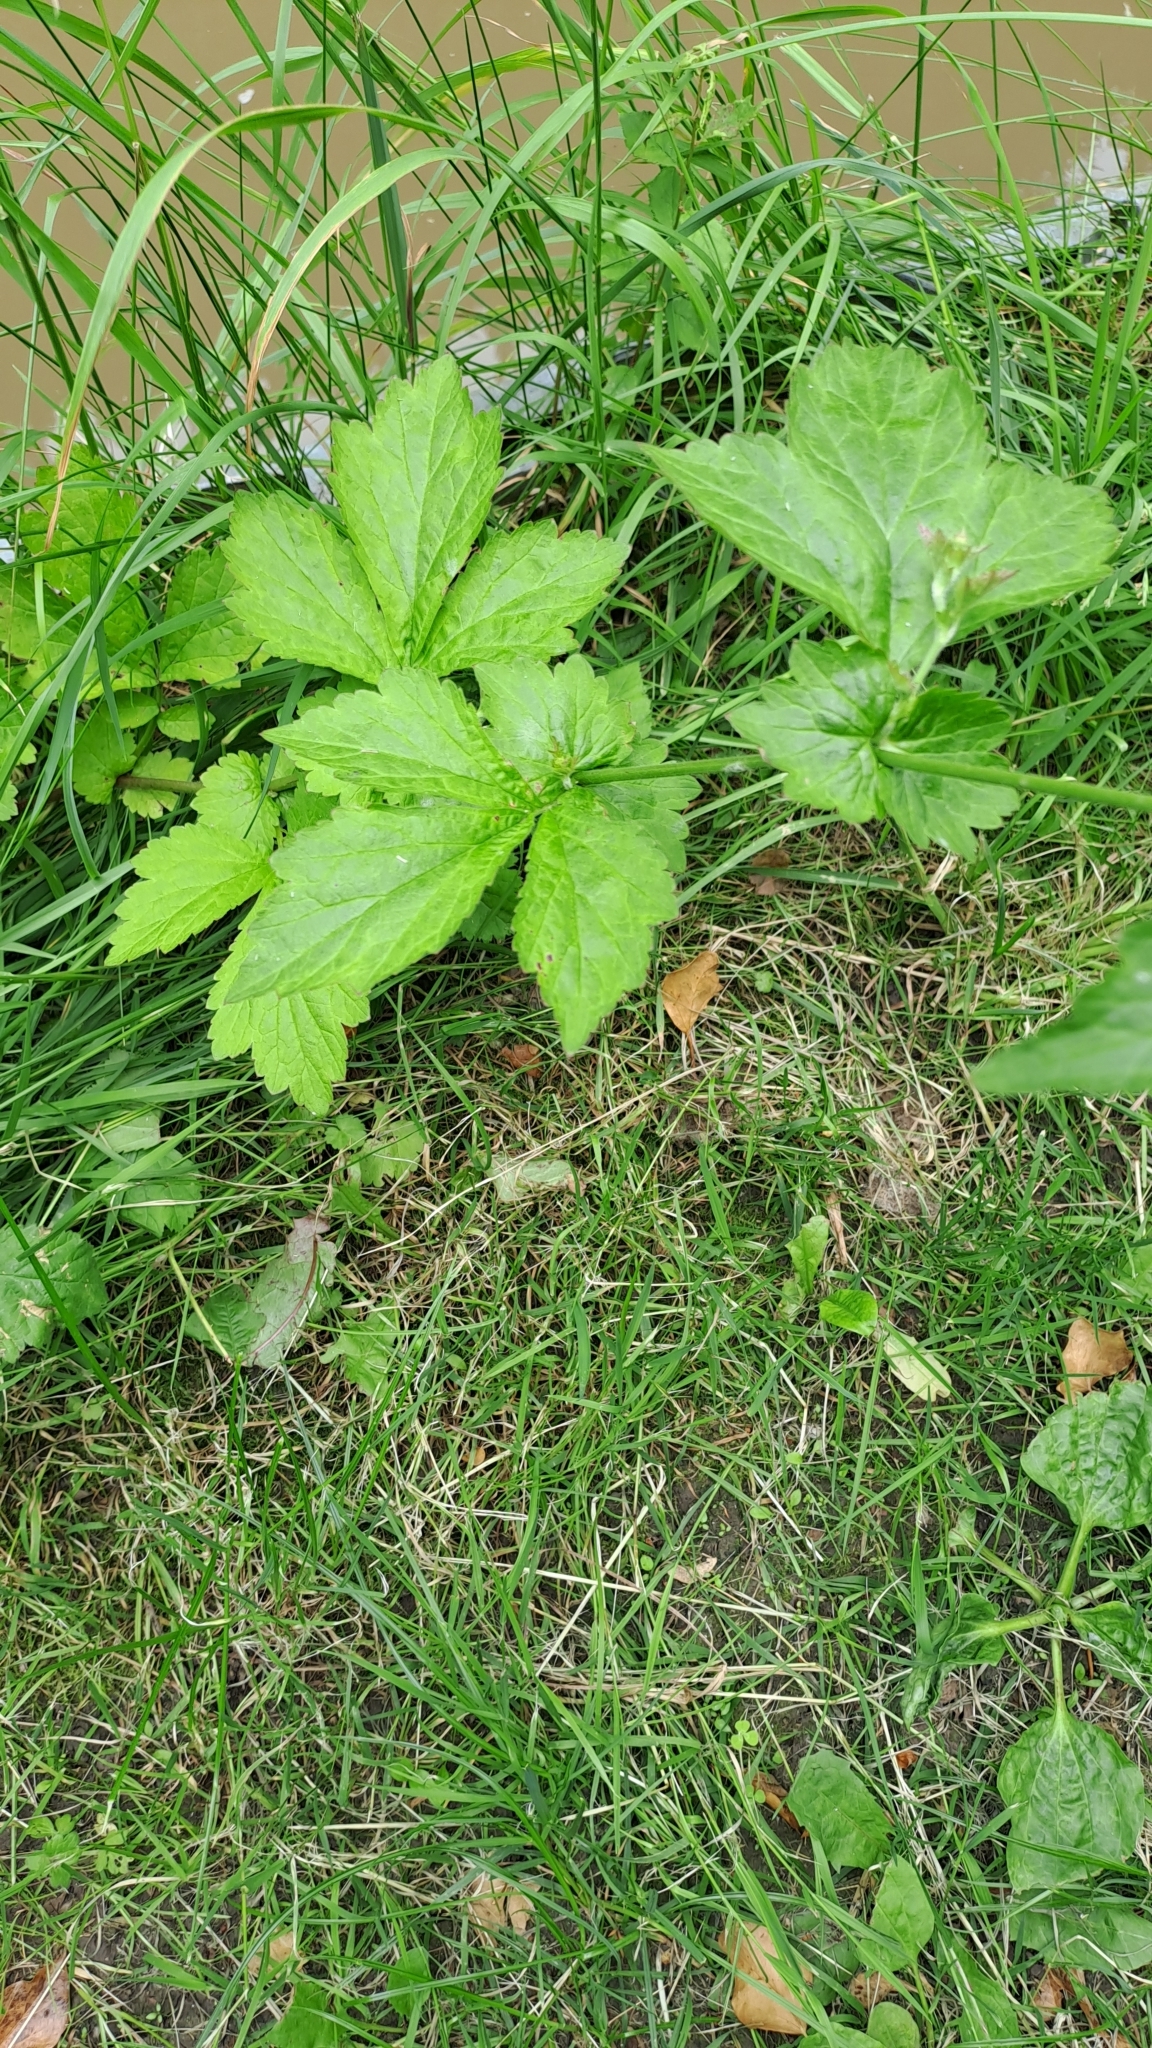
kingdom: Plantae
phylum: Tracheophyta
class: Magnoliopsida
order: Rosales
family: Rosaceae
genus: Geum
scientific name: Geum urbanum
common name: Wood avens
